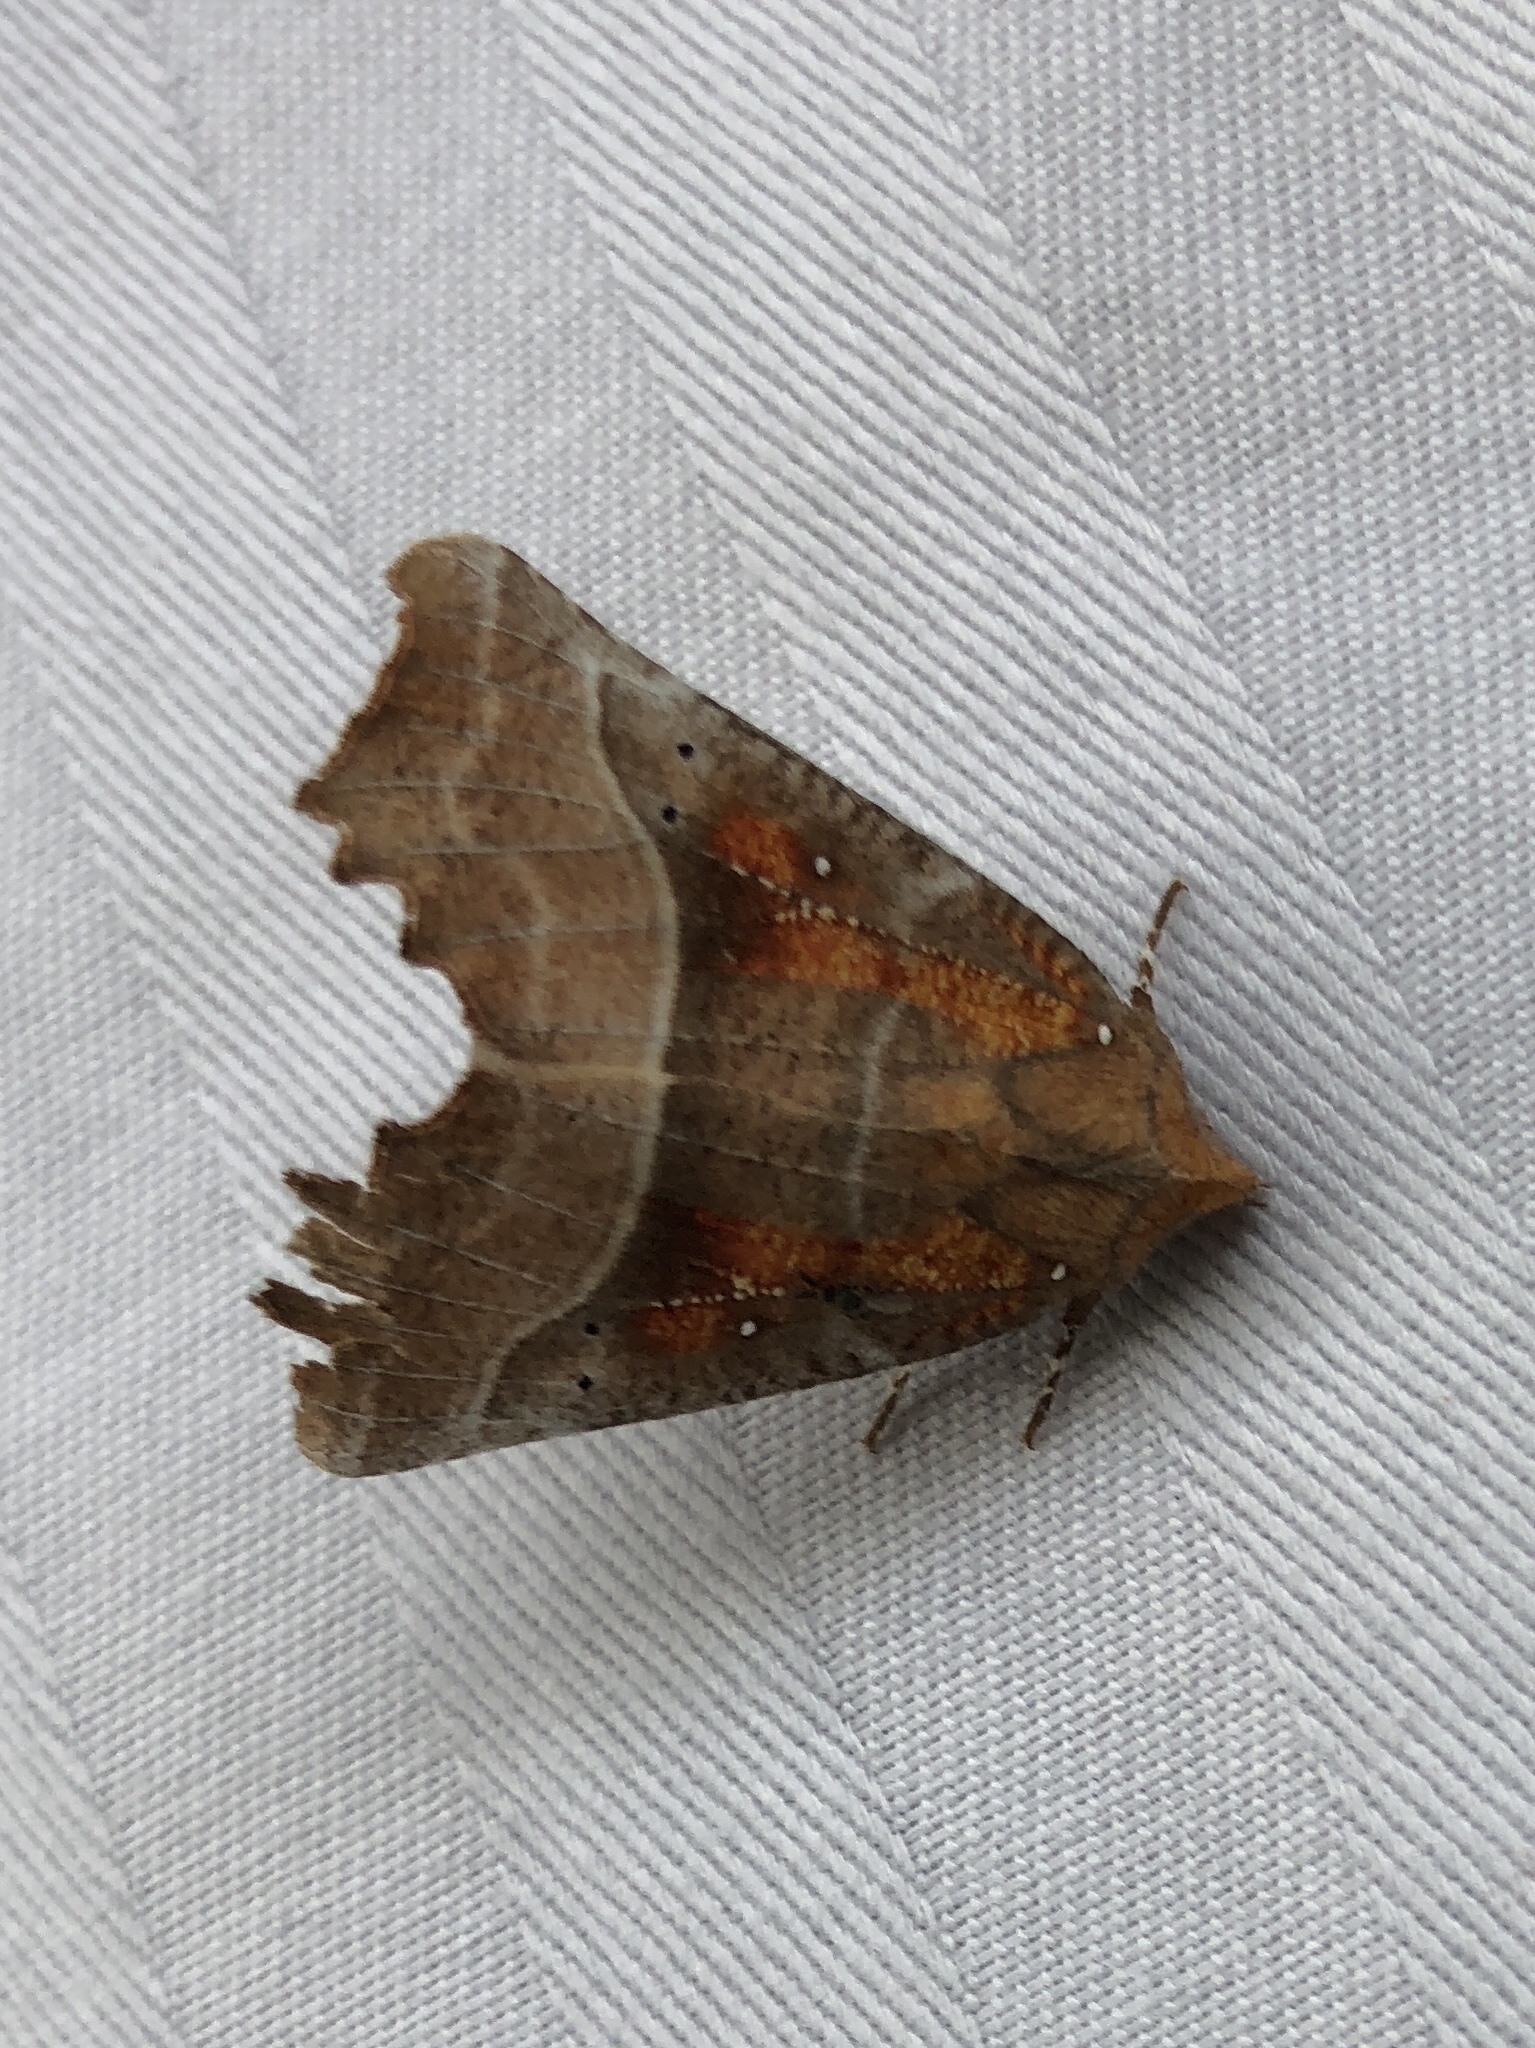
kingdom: Animalia
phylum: Arthropoda
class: Insecta
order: Lepidoptera
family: Erebidae
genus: Scoliopteryx
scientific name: Scoliopteryx libatrix
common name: Herald
